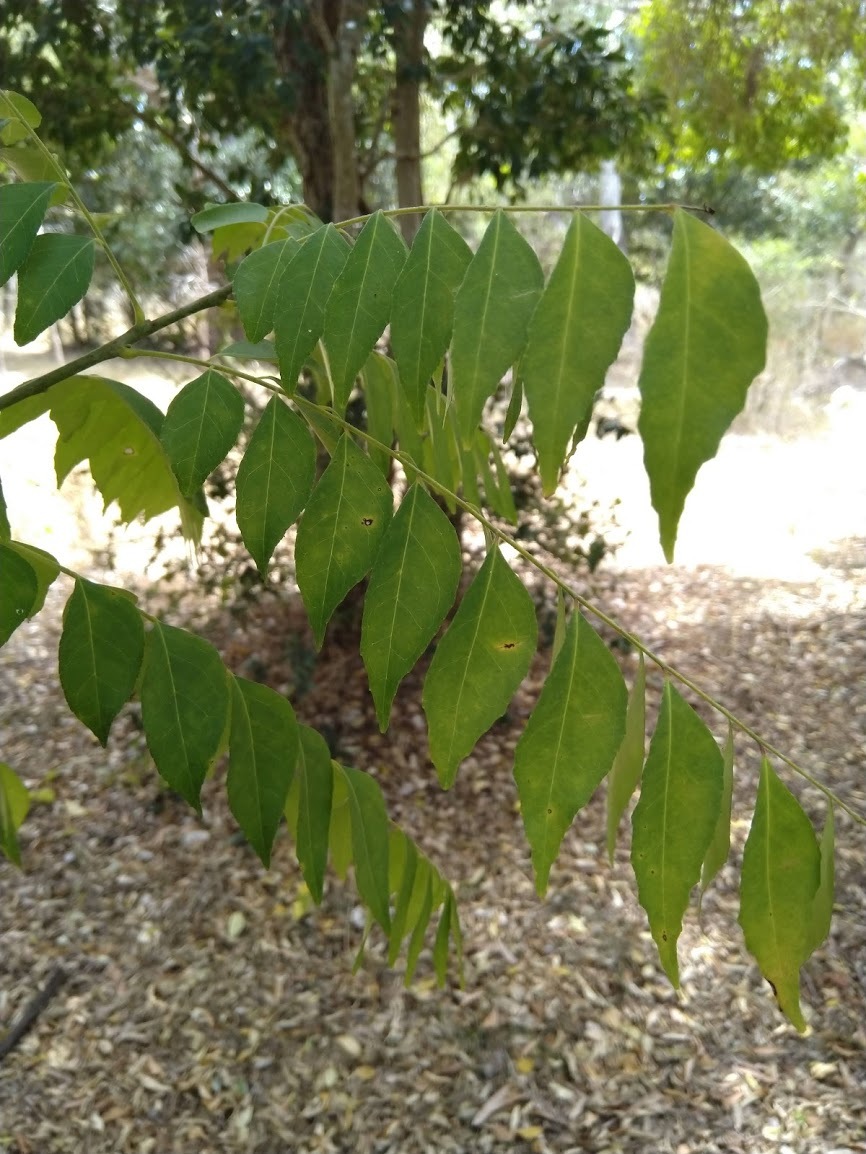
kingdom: Plantae
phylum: Tracheophyta
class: Magnoliopsida
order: Sapindales
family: Rutaceae
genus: Murraya
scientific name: Murraya koenigii
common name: Curry-plant
